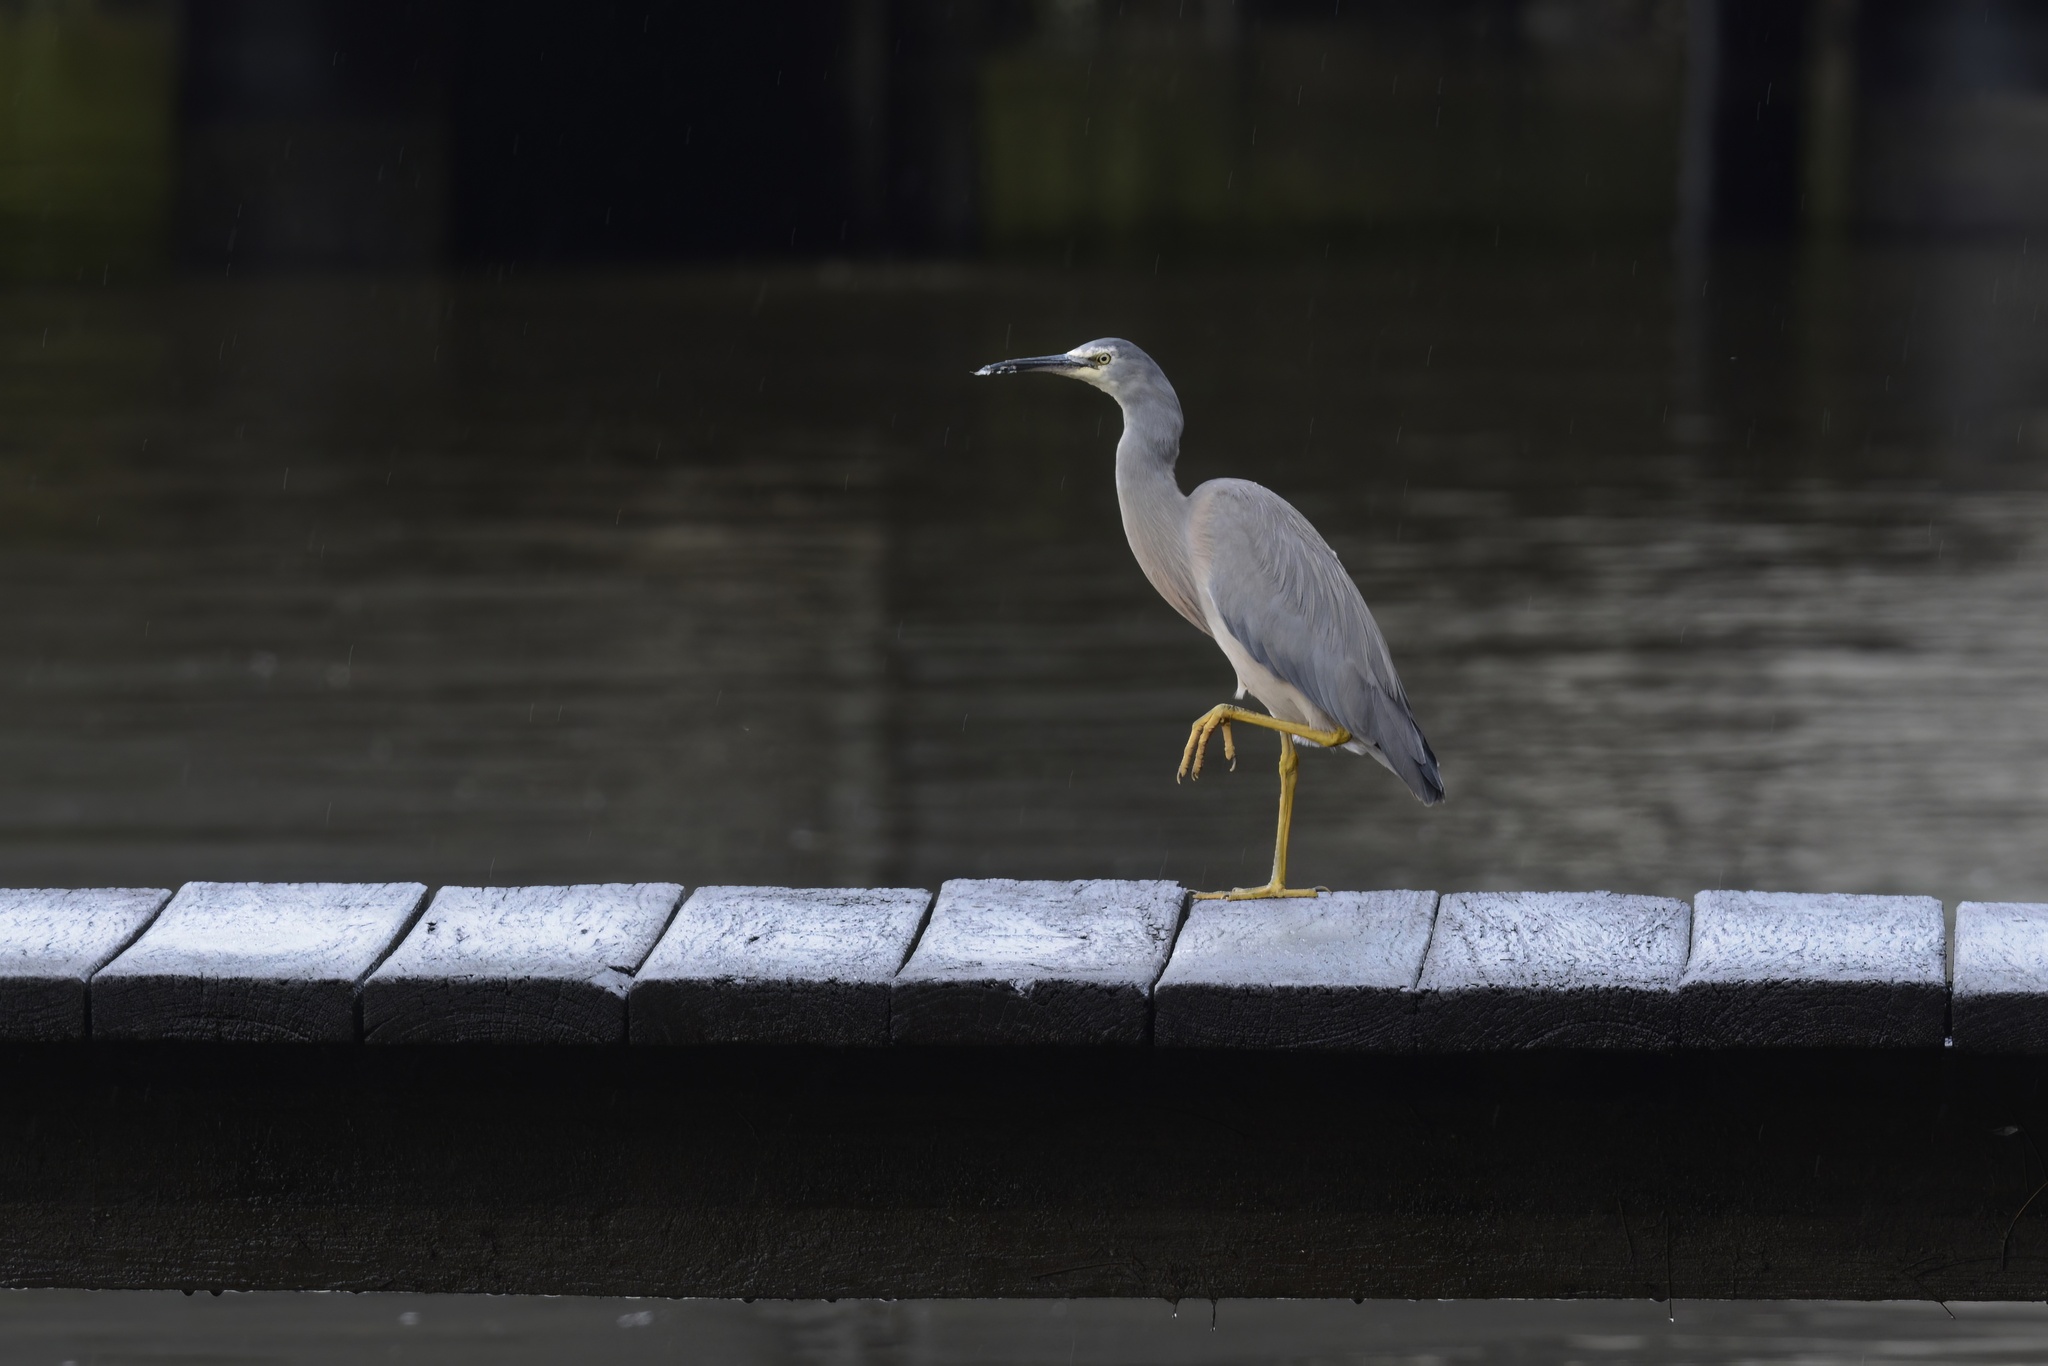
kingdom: Animalia
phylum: Chordata
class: Aves
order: Pelecaniformes
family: Ardeidae
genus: Egretta
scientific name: Egretta novaehollandiae
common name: White-faced heron
